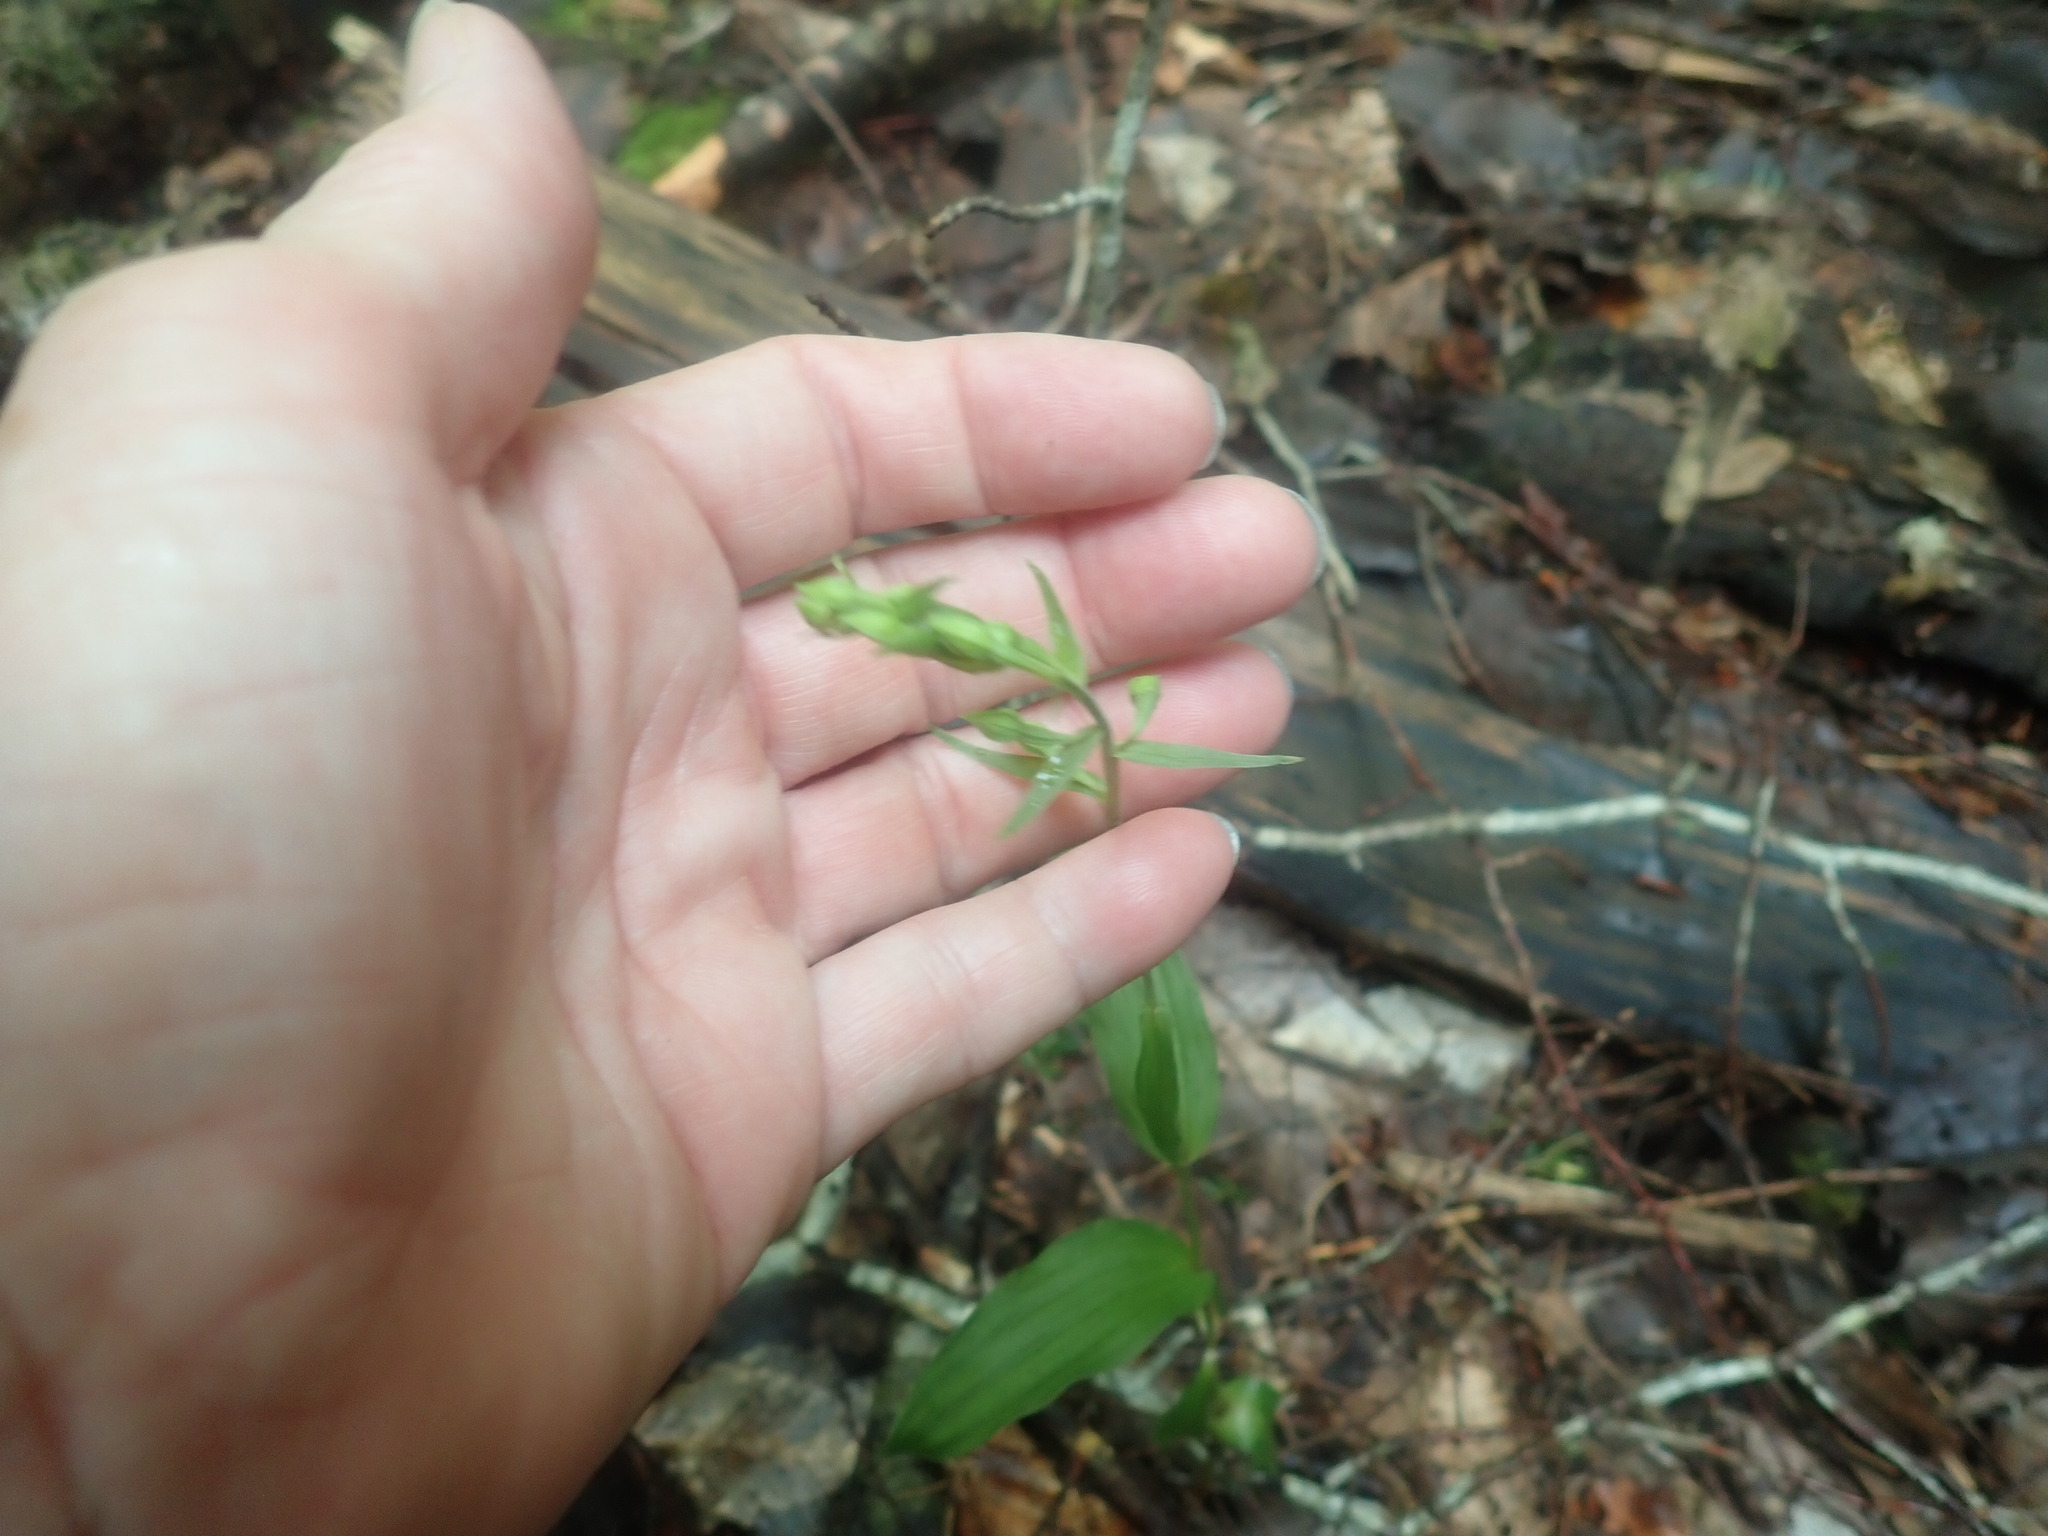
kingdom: Plantae
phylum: Tracheophyta
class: Liliopsida
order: Asparagales
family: Orchidaceae
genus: Epipactis
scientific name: Epipactis helleborine
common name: Broad-leaved helleborine
